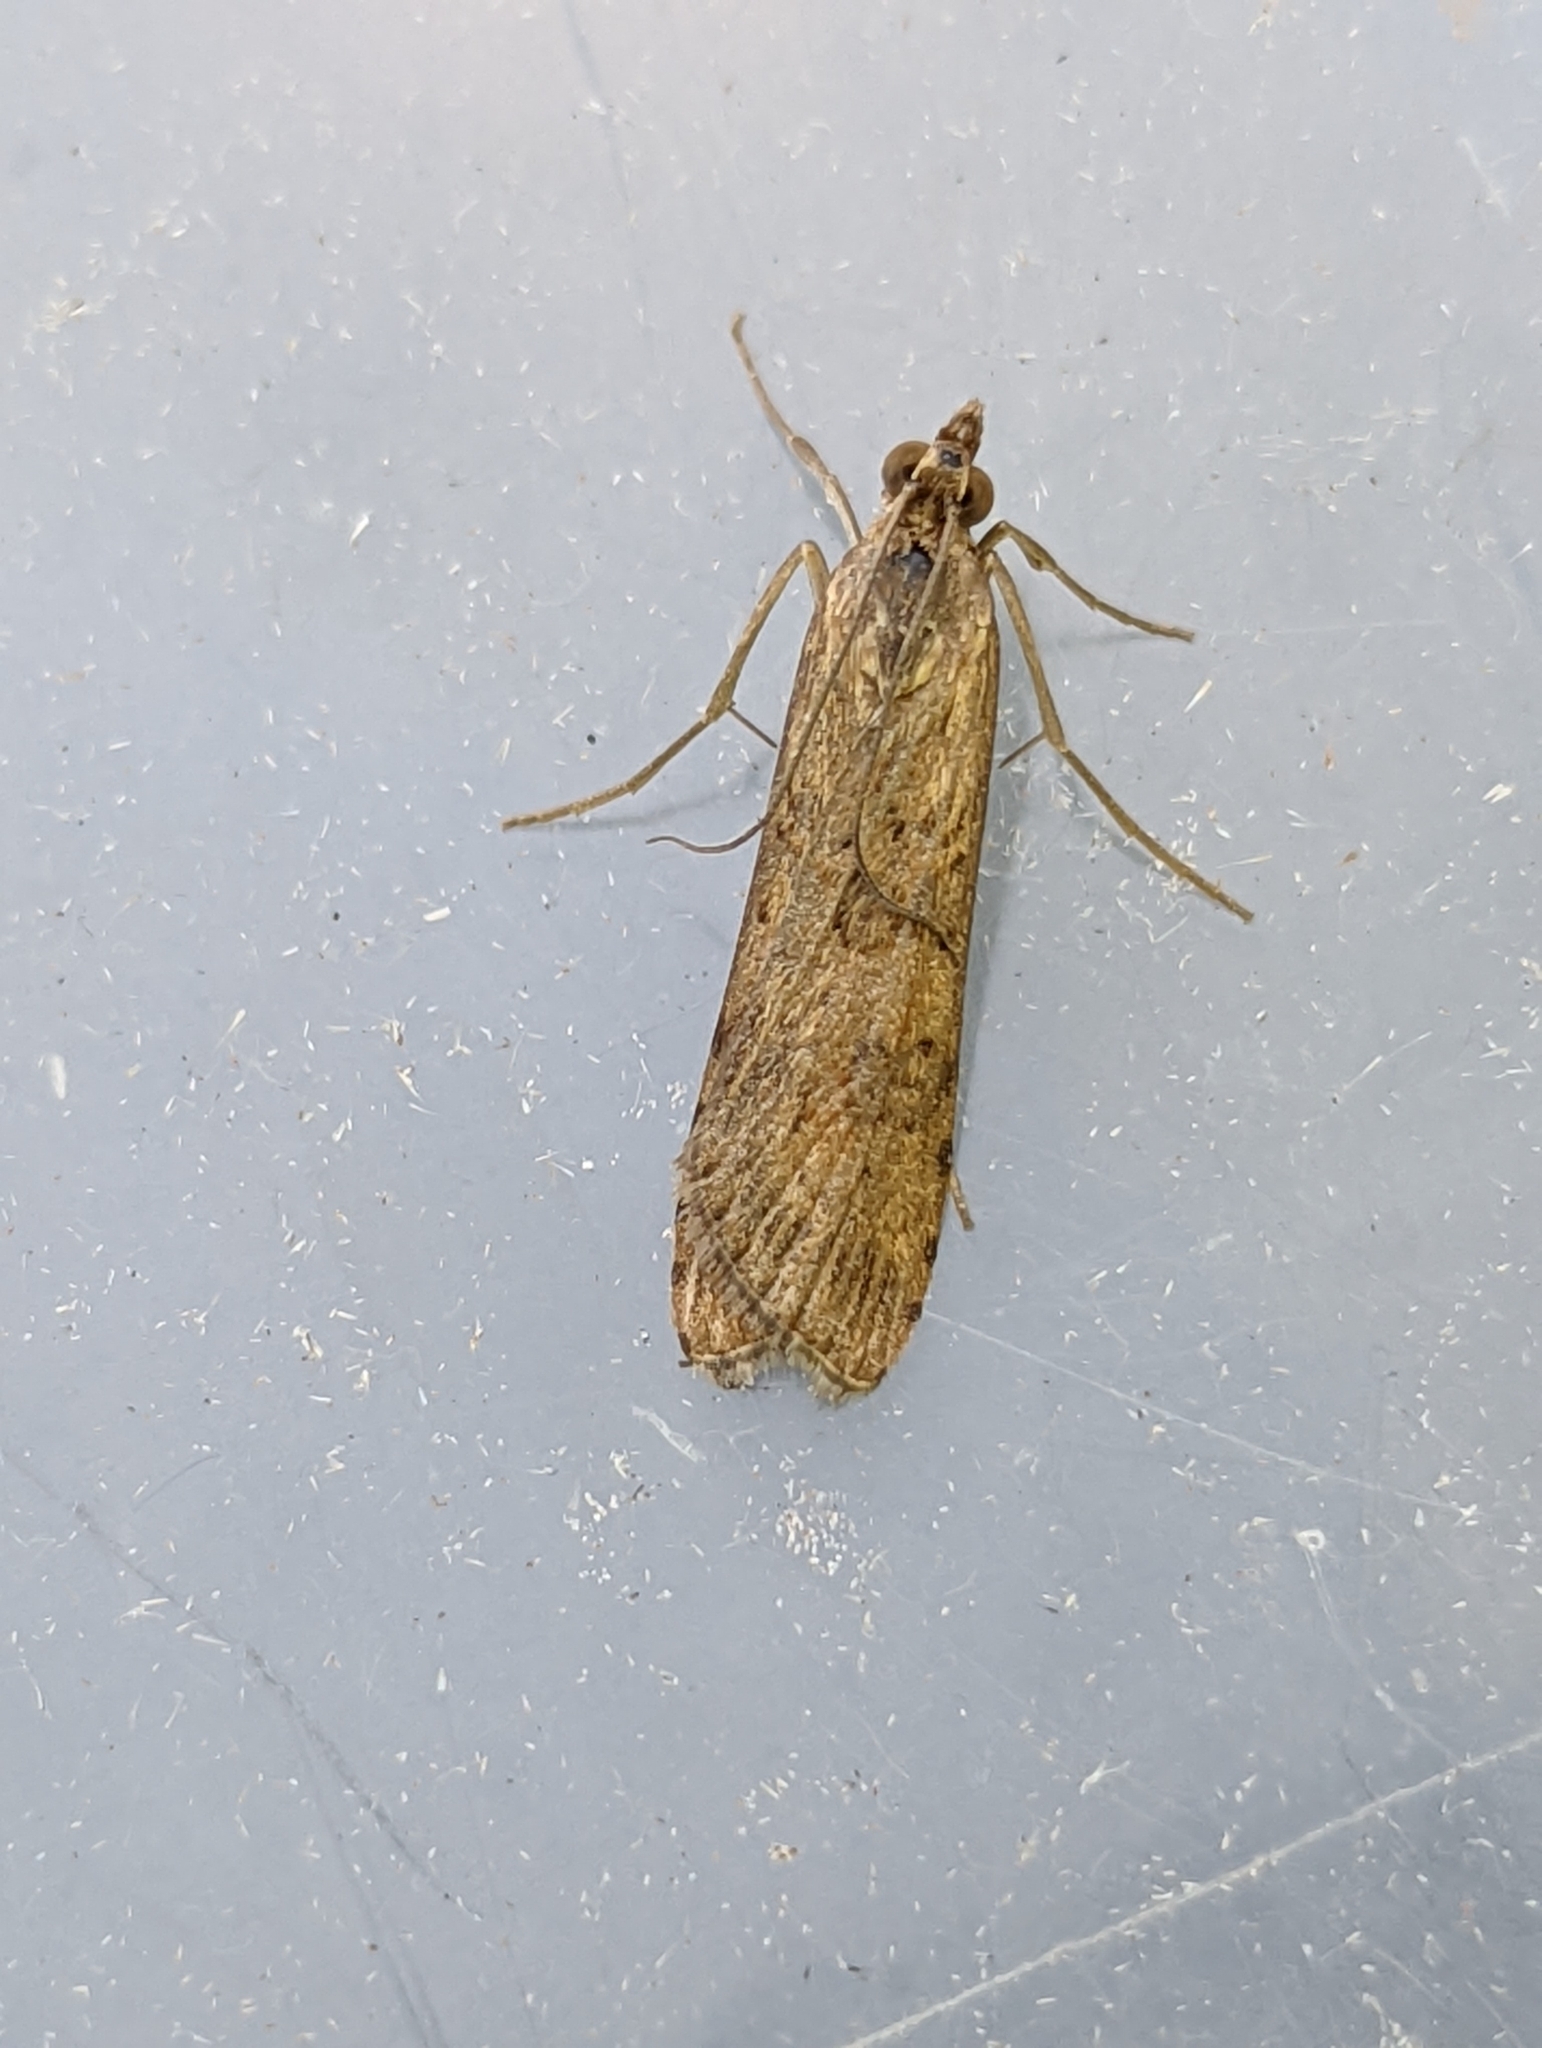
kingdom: Animalia
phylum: Arthropoda
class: Insecta
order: Lepidoptera
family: Crambidae
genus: Nomophila
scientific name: Nomophila noctuella
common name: Rush veneer
